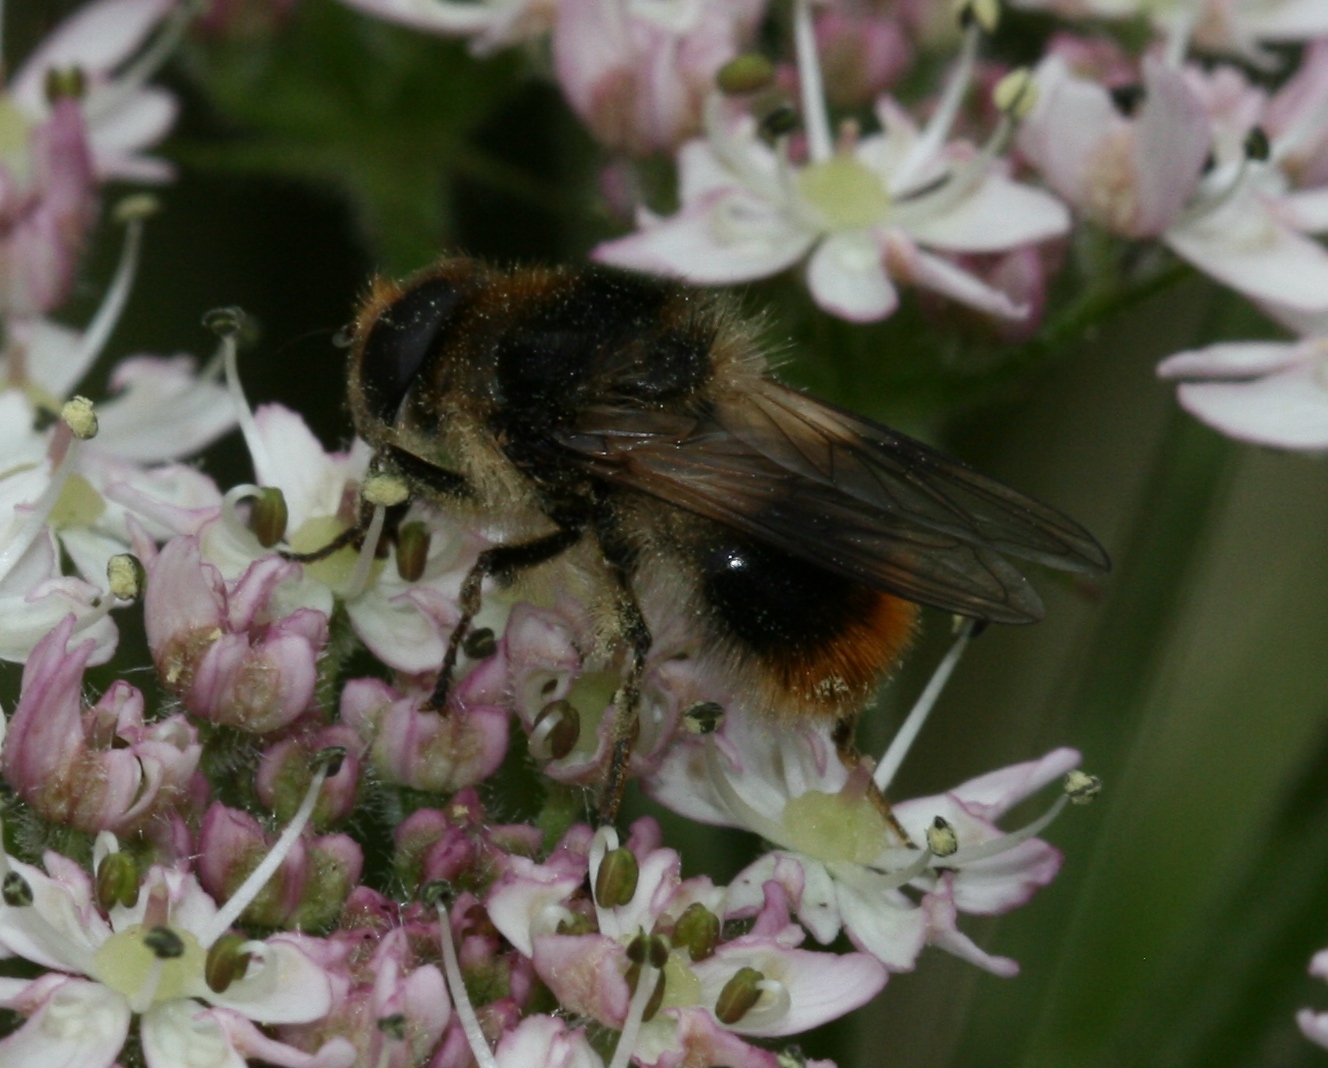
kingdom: Animalia
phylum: Arthropoda
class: Insecta
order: Diptera
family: Syrphidae
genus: Cheilosia
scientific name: Cheilosia illustrata
